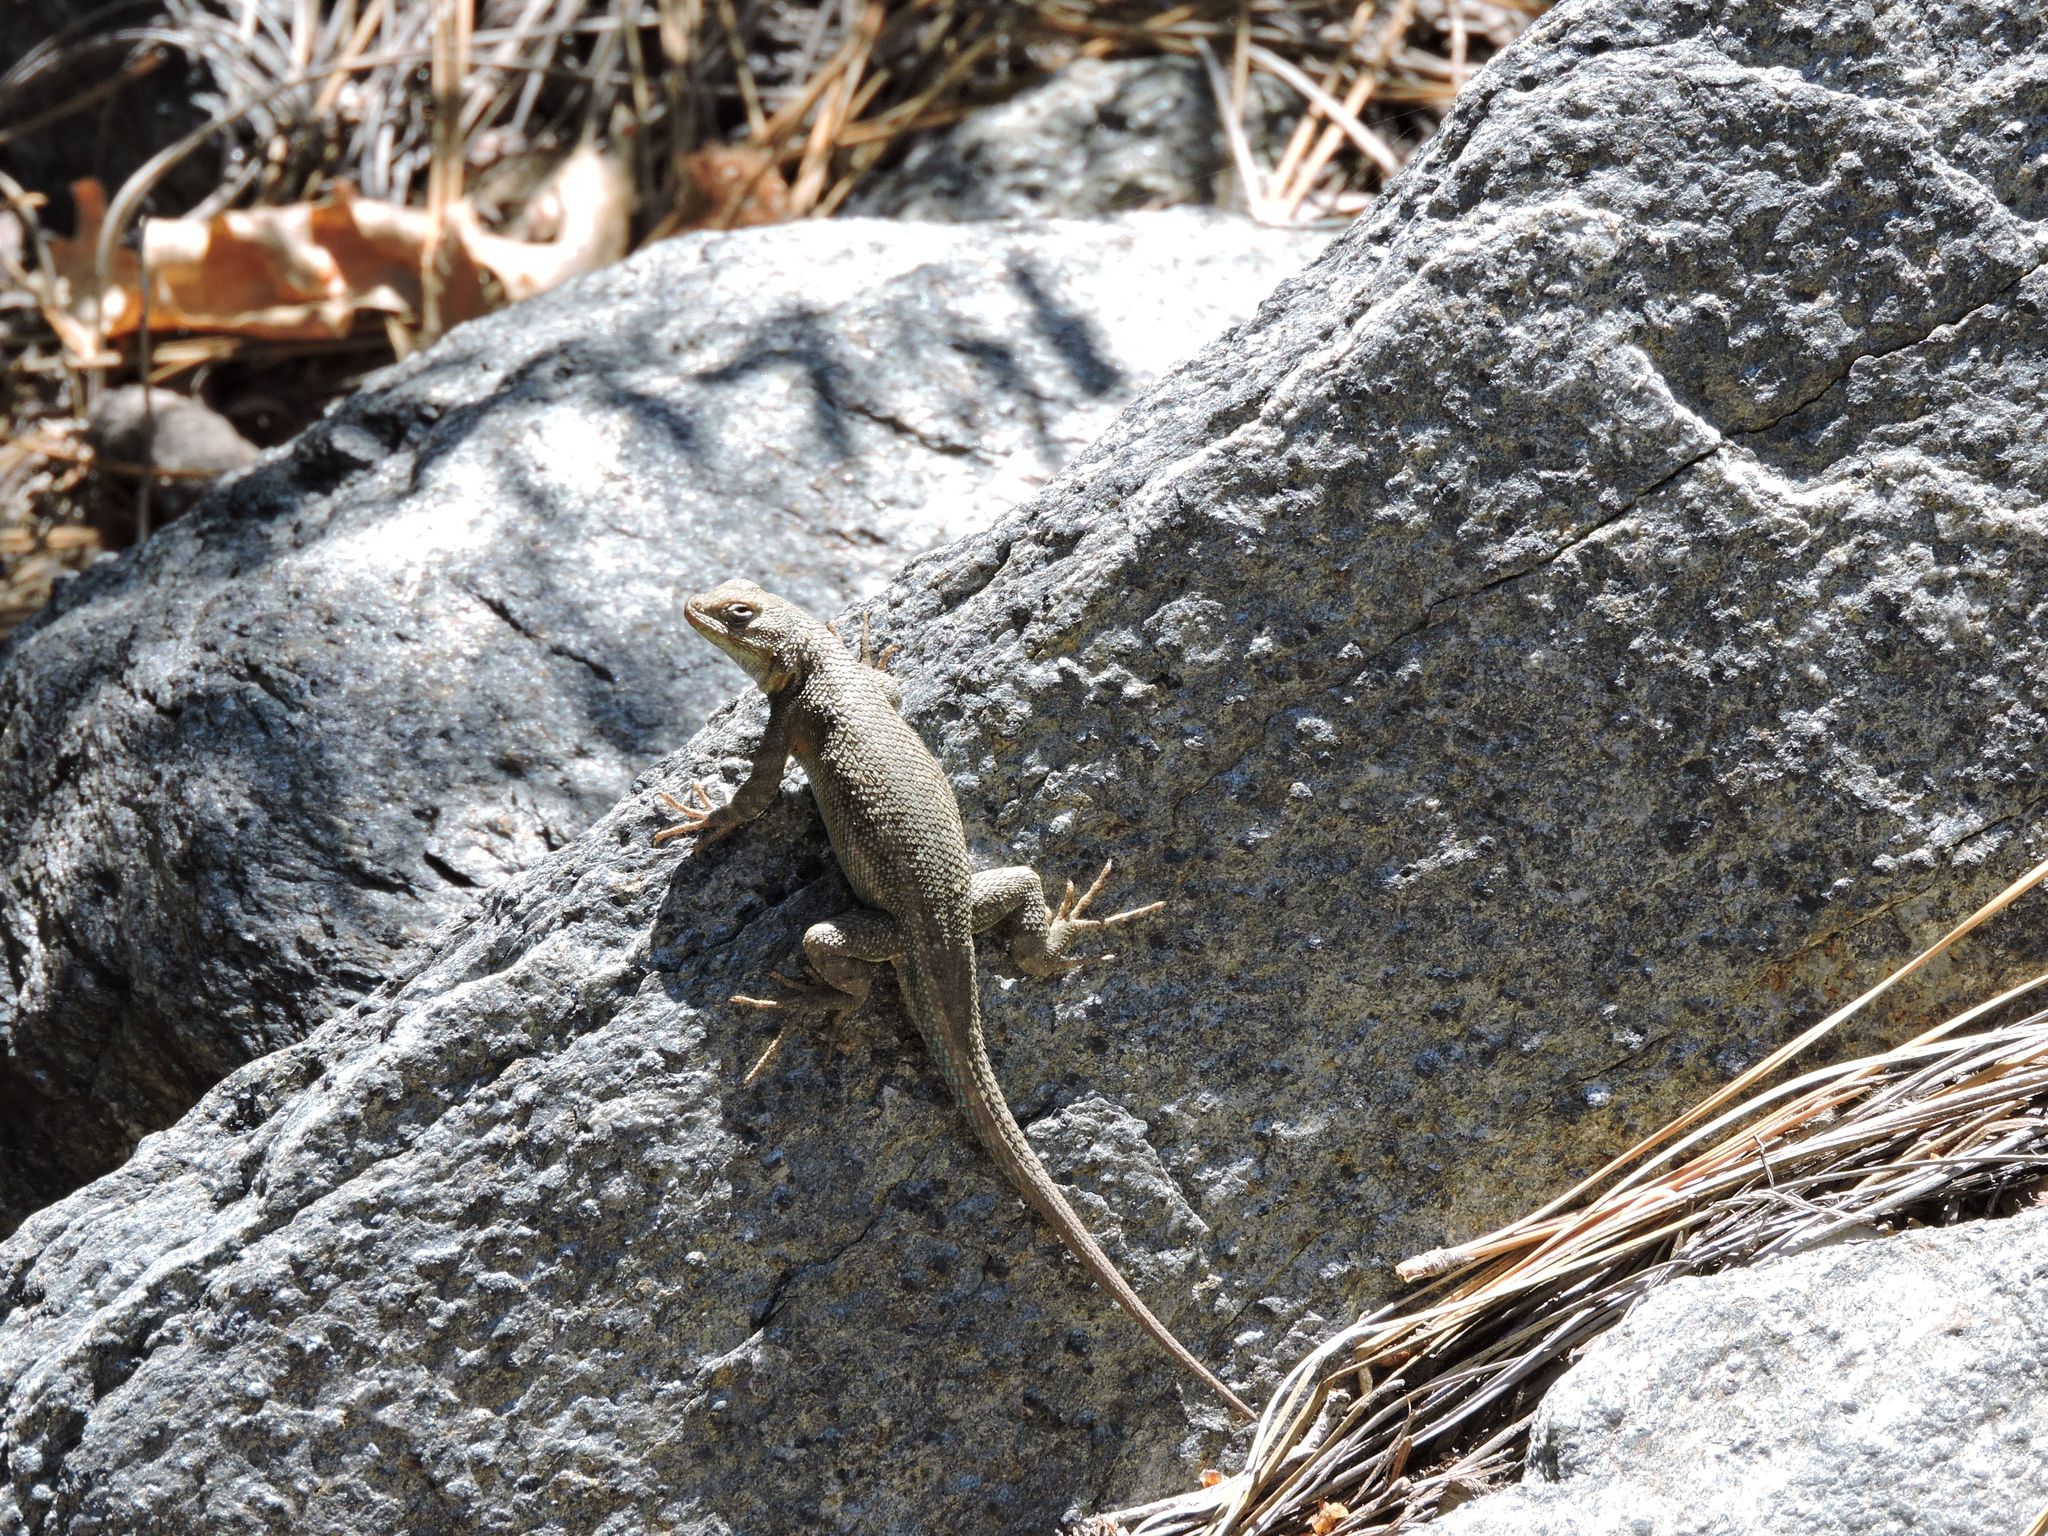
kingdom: Animalia
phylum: Chordata
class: Squamata
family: Phrynosomatidae
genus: Sceloporus
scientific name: Sceloporus occidentalis
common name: Western fence lizard
